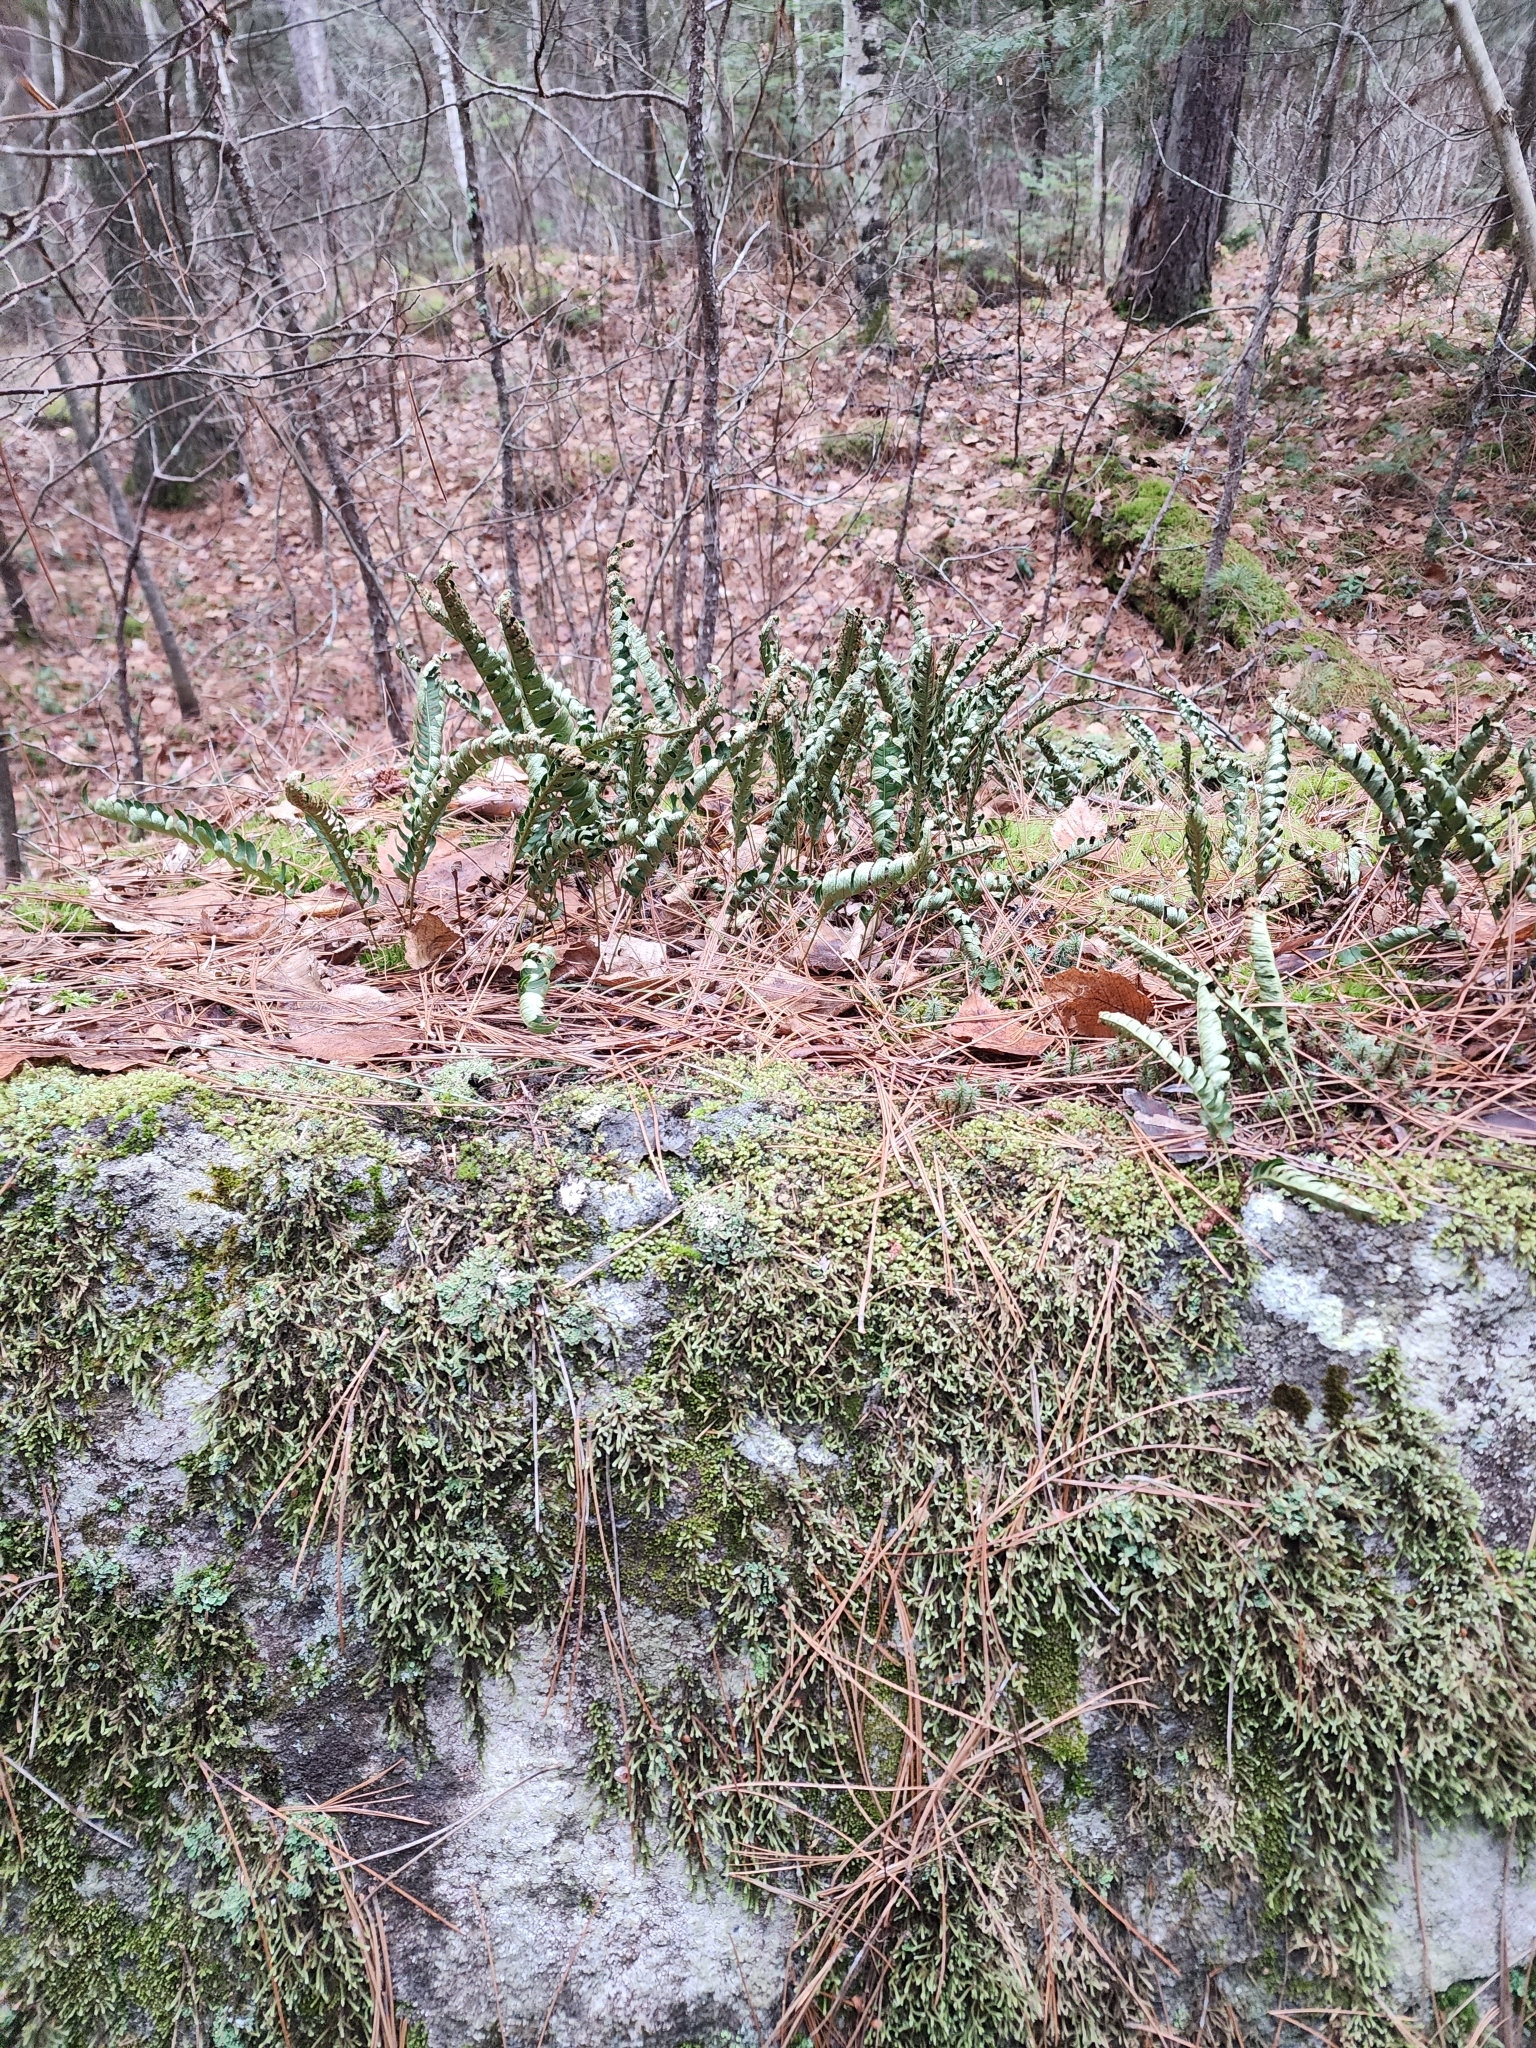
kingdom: Plantae
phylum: Tracheophyta
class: Polypodiopsida
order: Polypodiales
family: Polypodiaceae
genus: Polypodium
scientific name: Polypodium virginianum
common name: American wall fern
